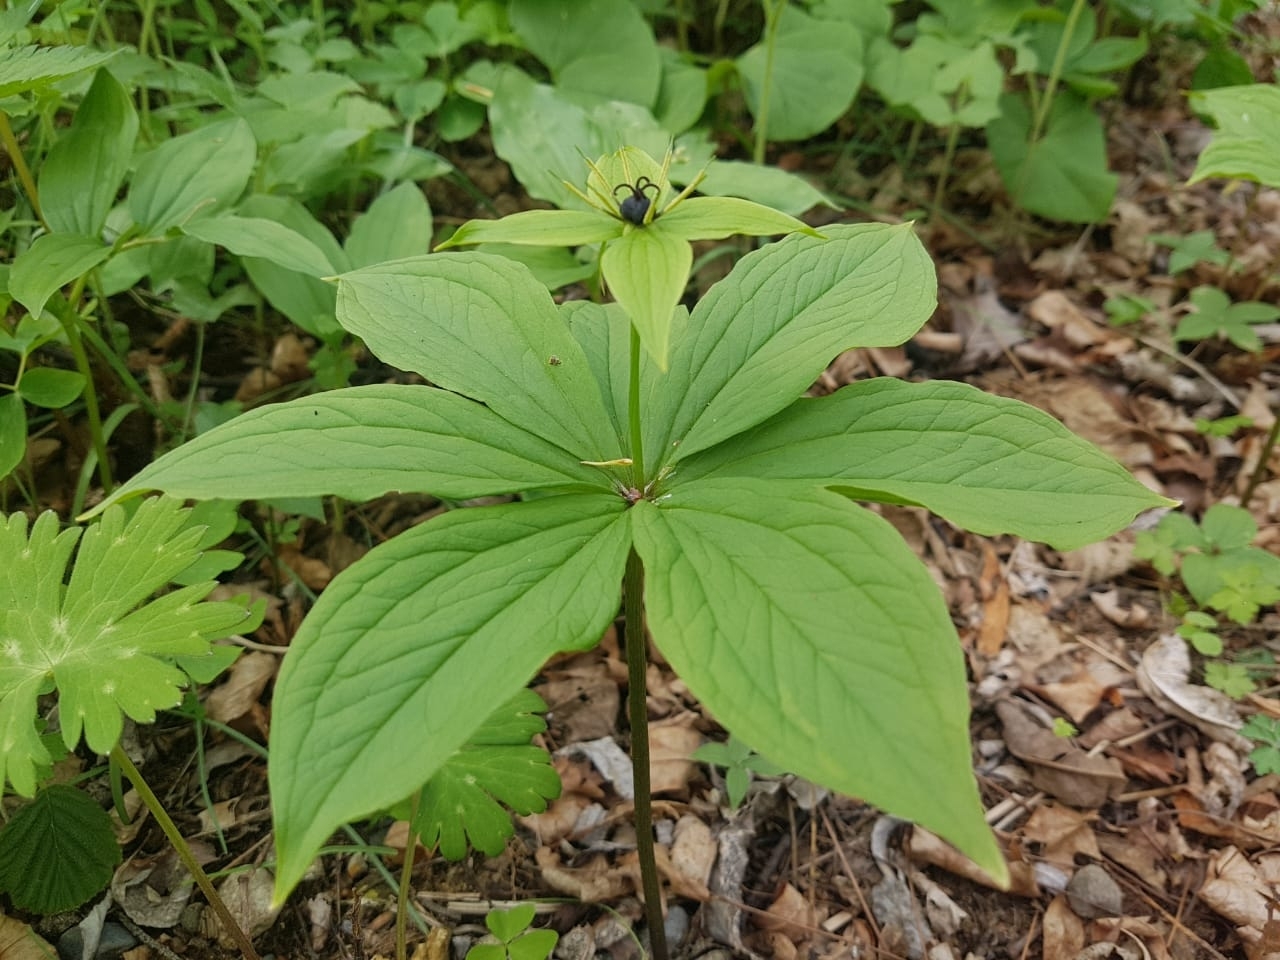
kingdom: Plantae
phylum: Tracheophyta
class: Liliopsida
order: Liliales
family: Melanthiaceae
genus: Paris
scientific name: Paris verticillata
